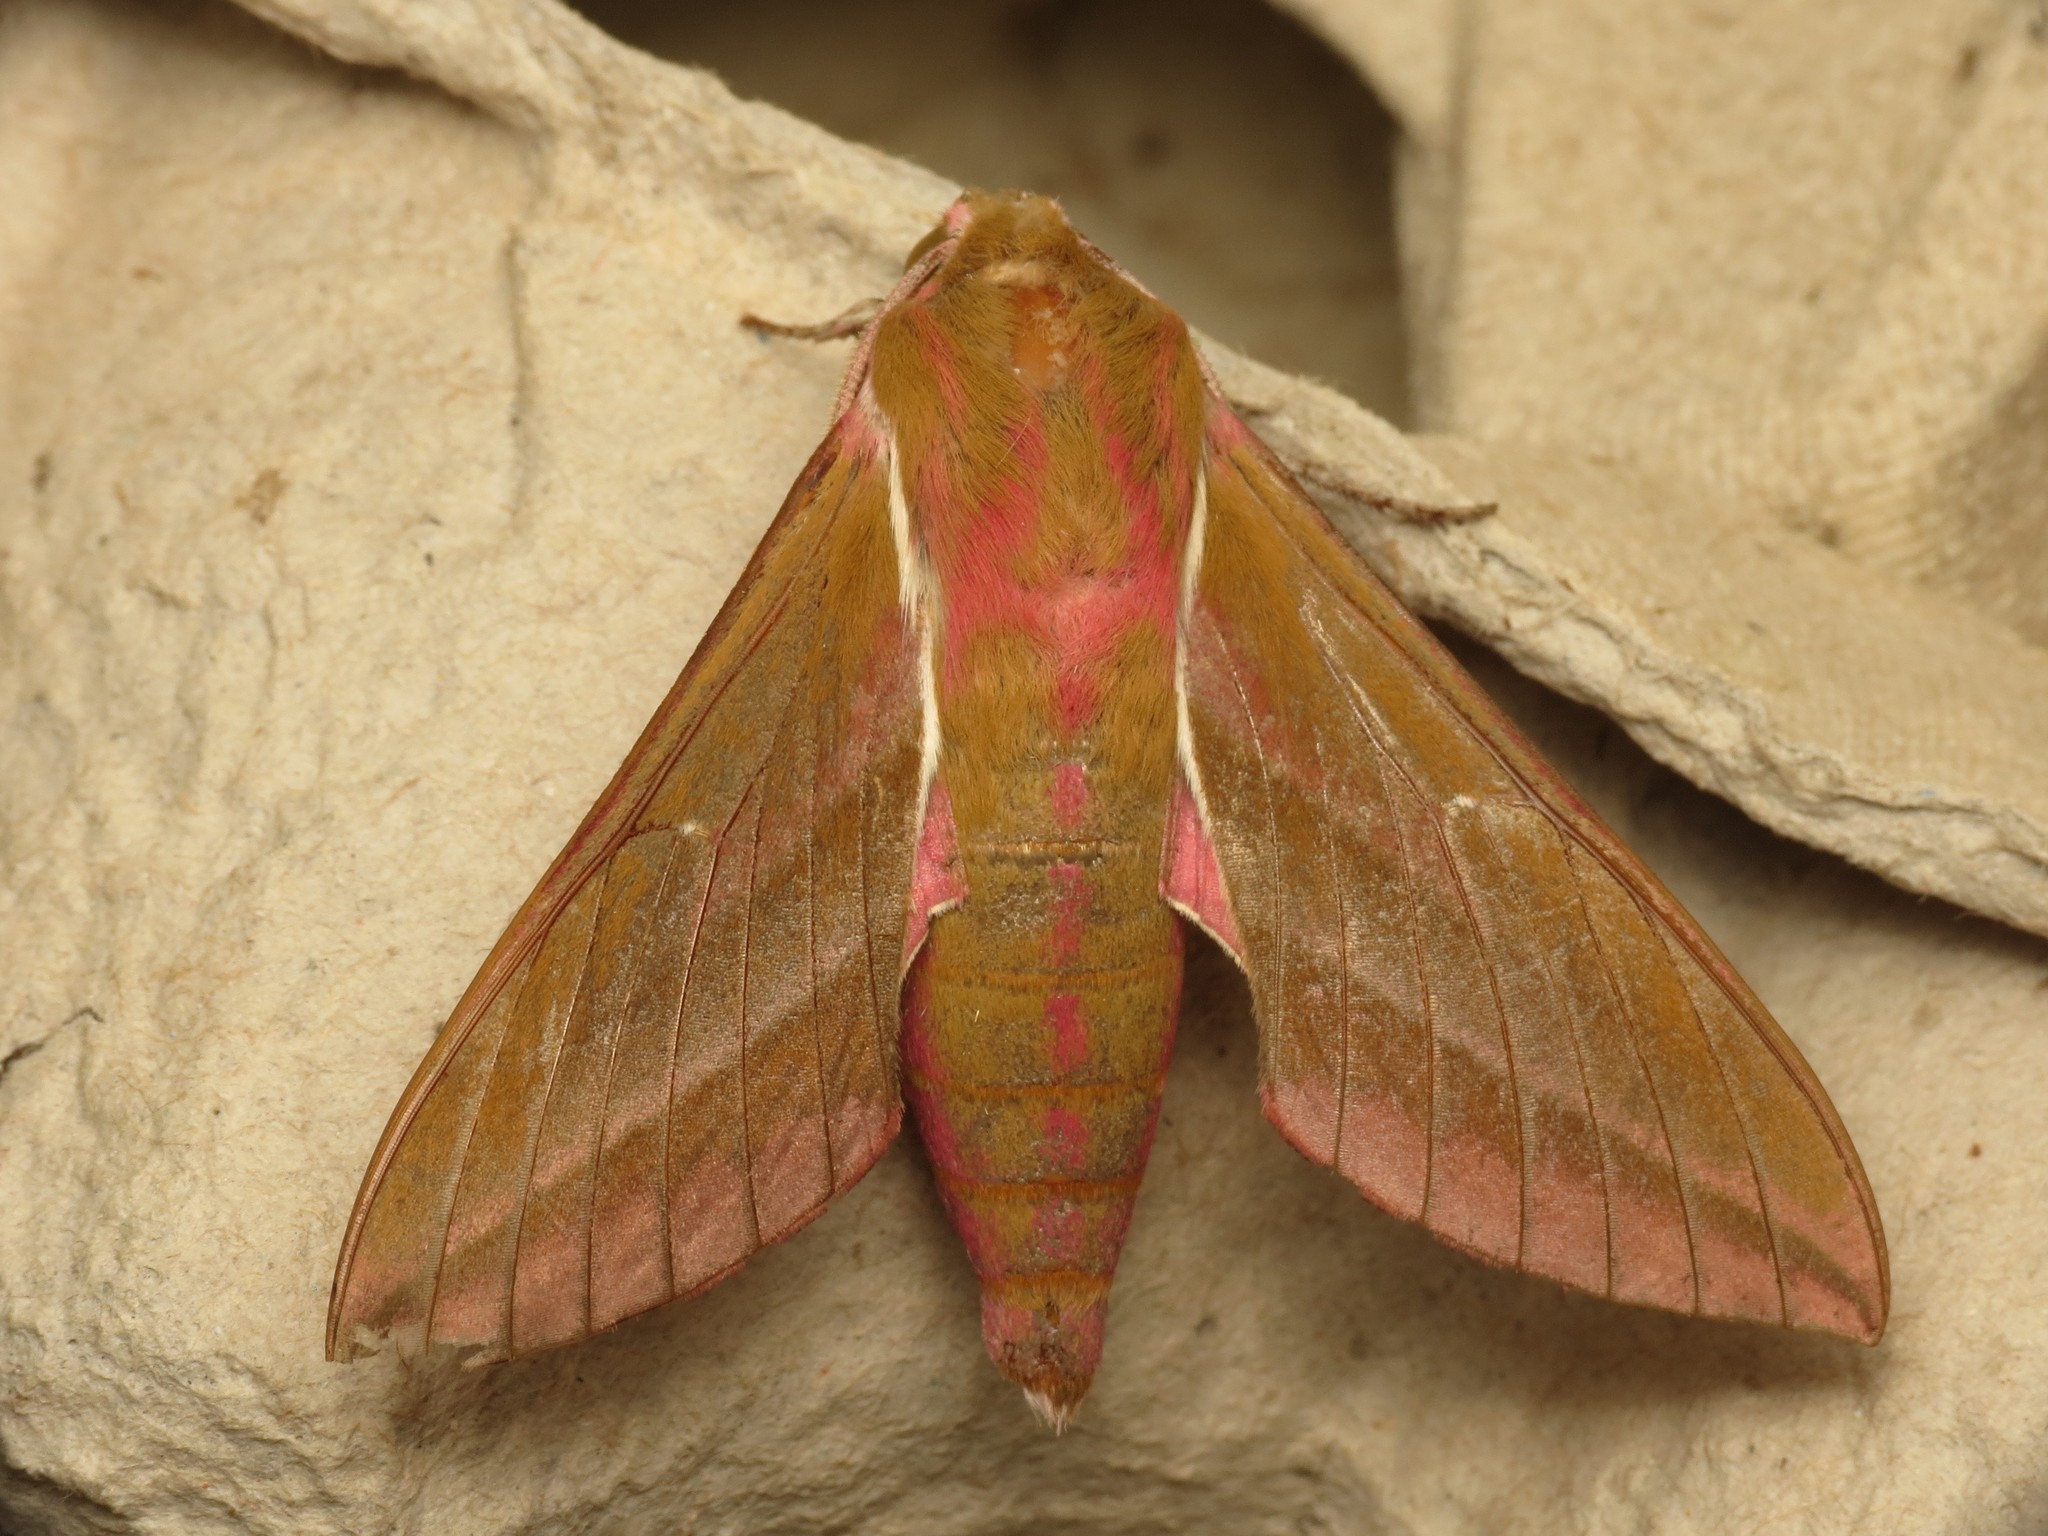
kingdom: Animalia
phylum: Arthropoda
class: Insecta
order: Lepidoptera
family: Sphingidae
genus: Deilephila
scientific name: Deilephila elpenor
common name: Elephant hawk-moth
